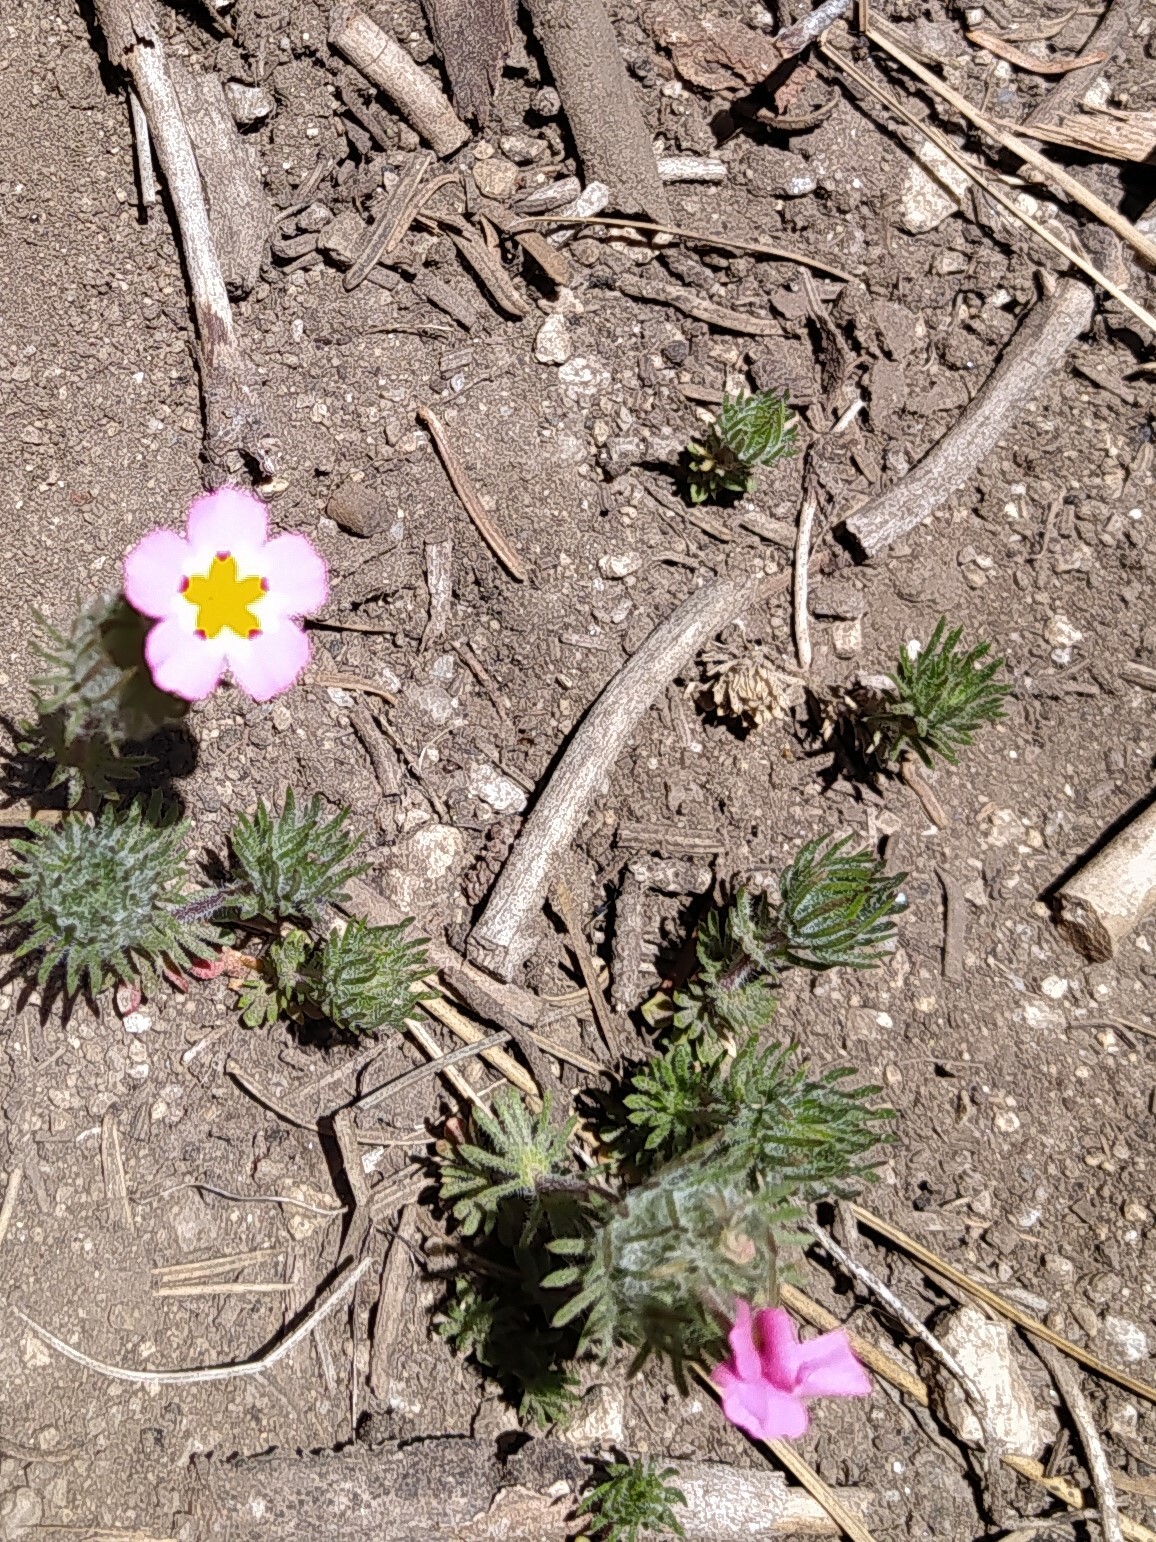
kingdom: Plantae
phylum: Tracheophyta
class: Magnoliopsida
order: Ericales
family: Polemoniaceae
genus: Leptosiphon
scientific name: Leptosiphon ciliatus
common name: Whiskerbrush
